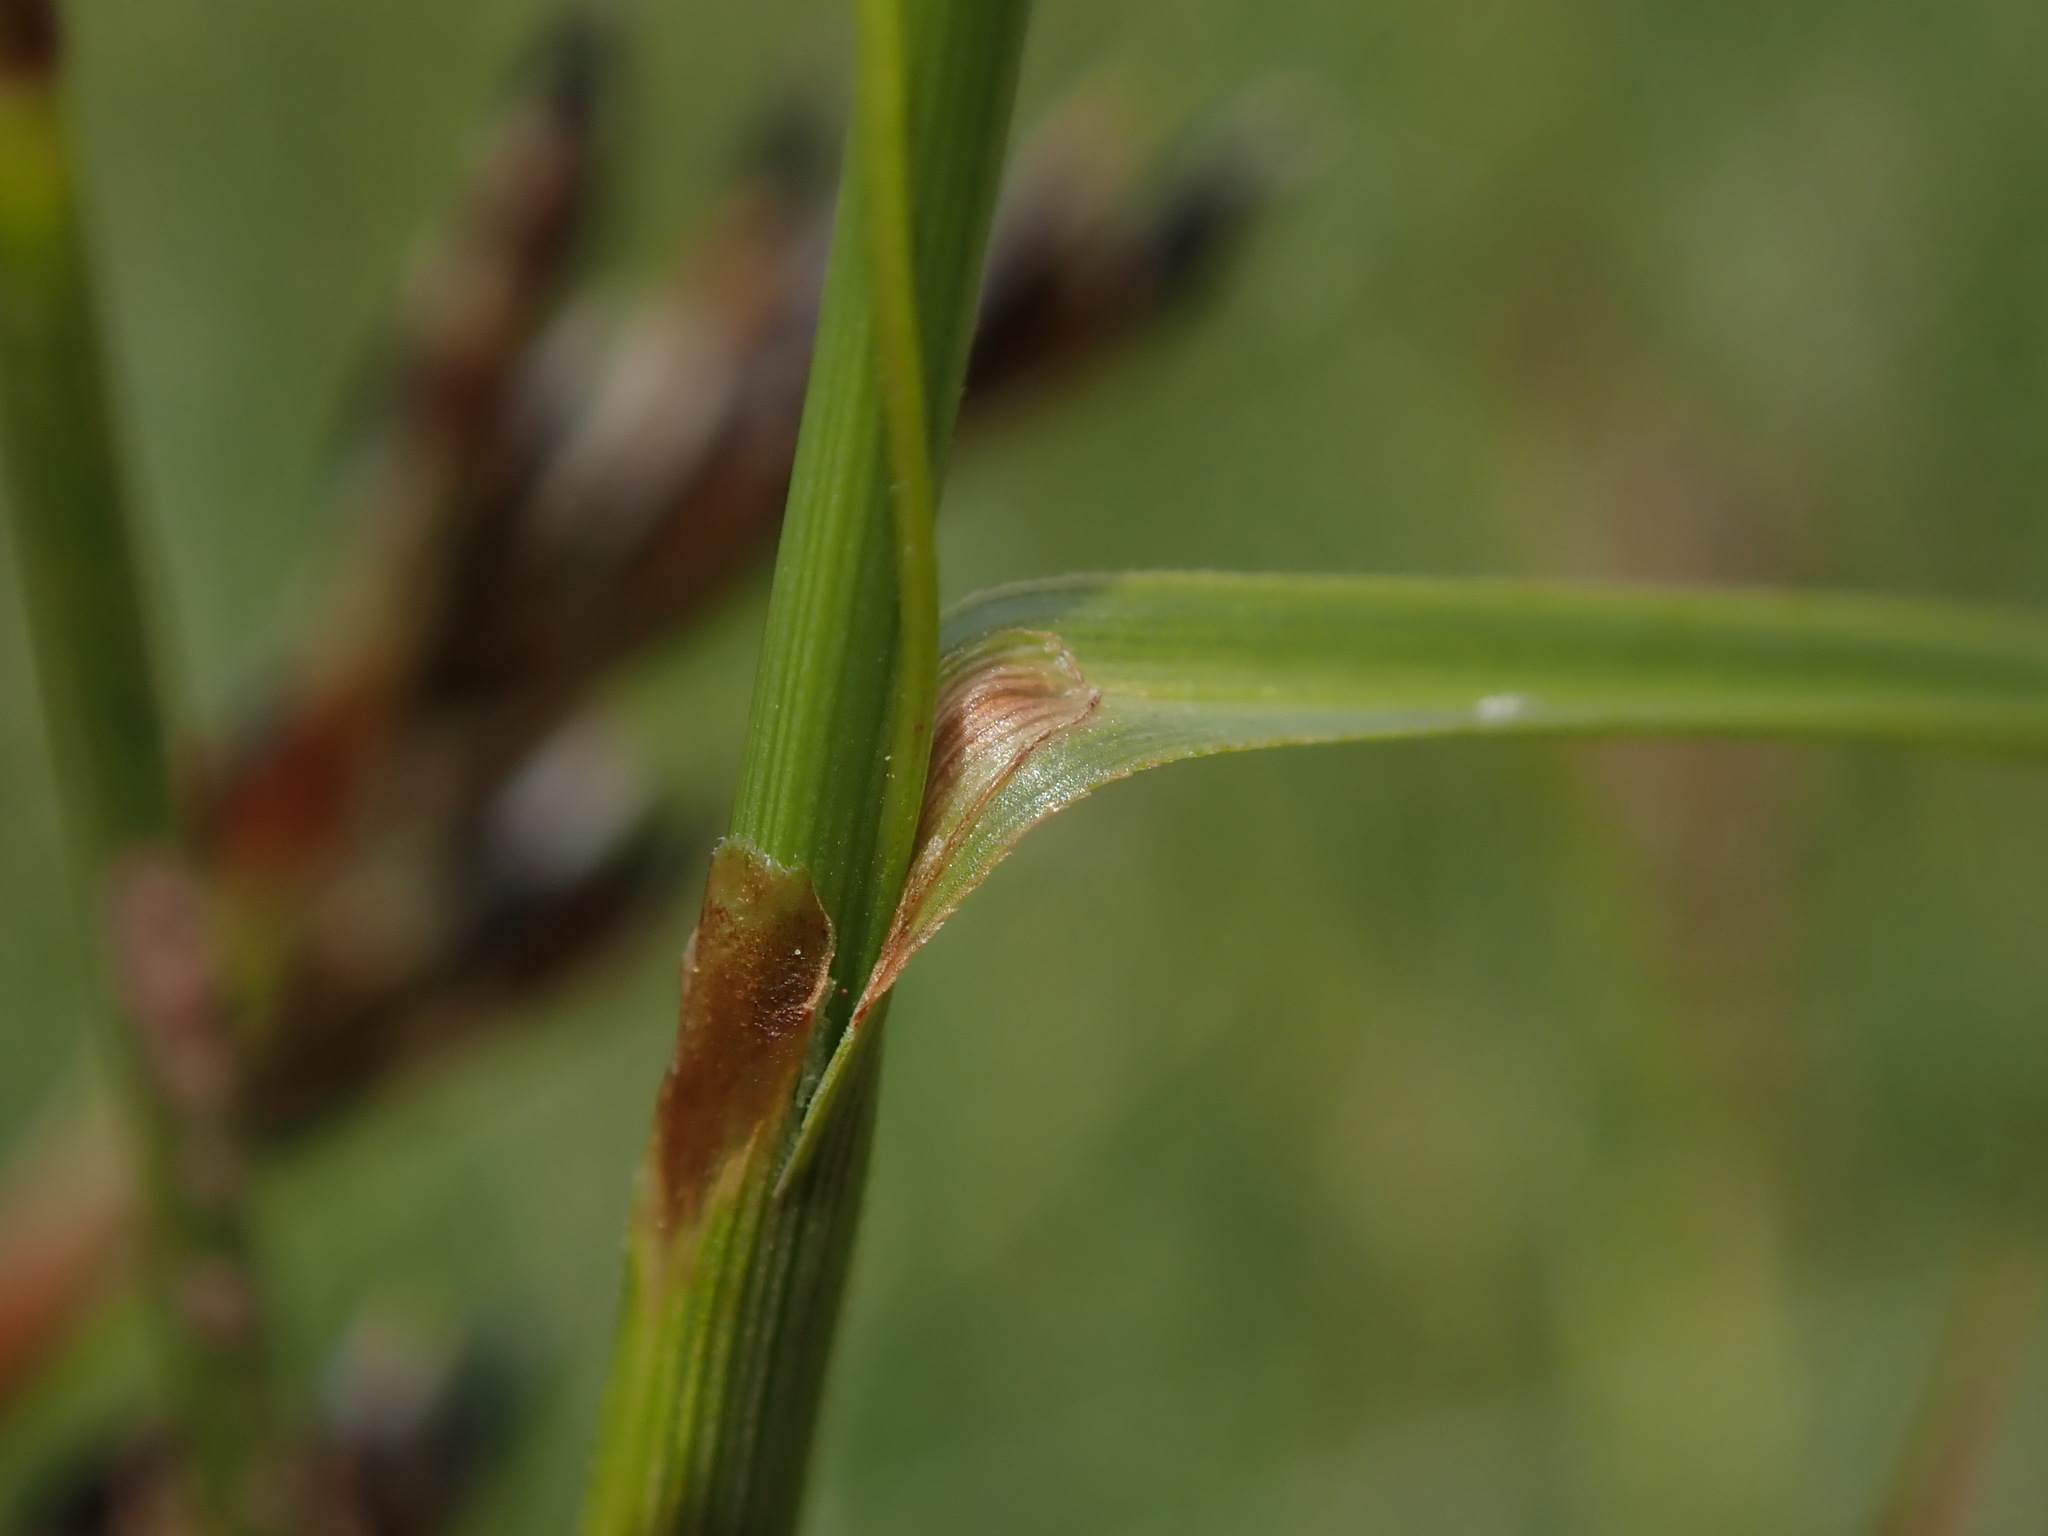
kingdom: Plantae
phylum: Tracheophyta
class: Liliopsida
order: Poales
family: Cyperaceae
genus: Carex
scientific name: Carex binervis
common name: Green-ribbed sedge
